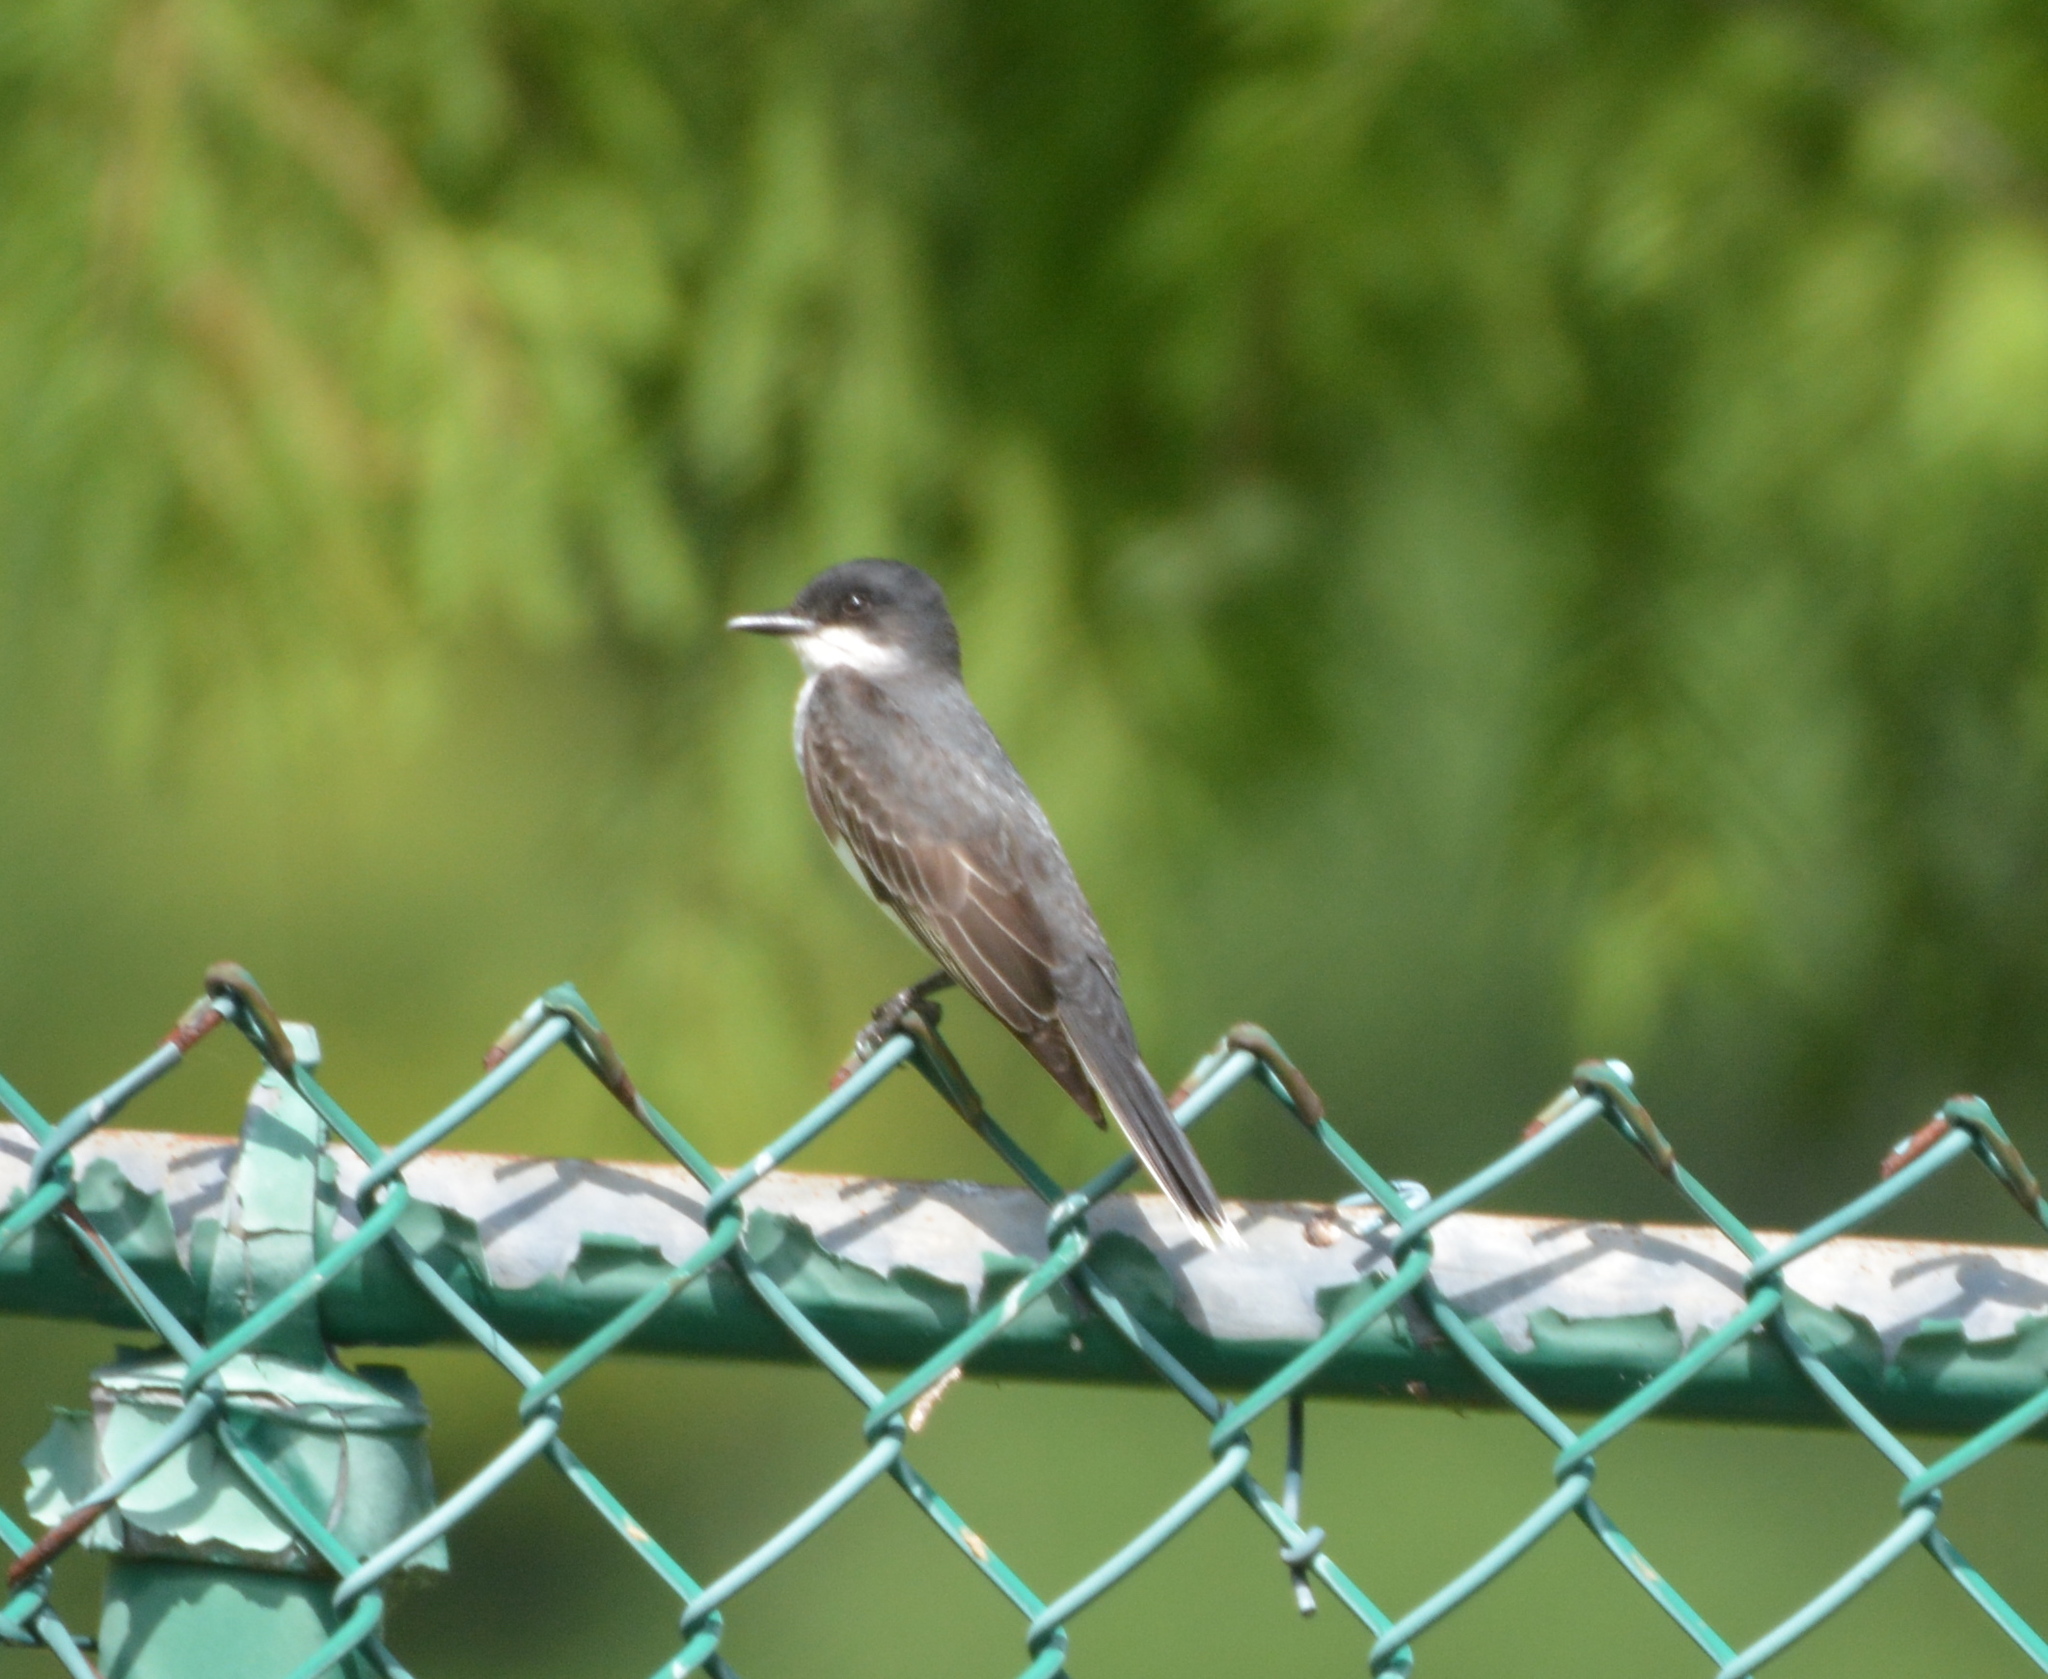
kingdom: Animalia
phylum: Chordata
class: Aves
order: Passeriformes
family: Tyrannidae
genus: Tyrannus
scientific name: Tyrannus tyrannus
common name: Eastern kingbird
